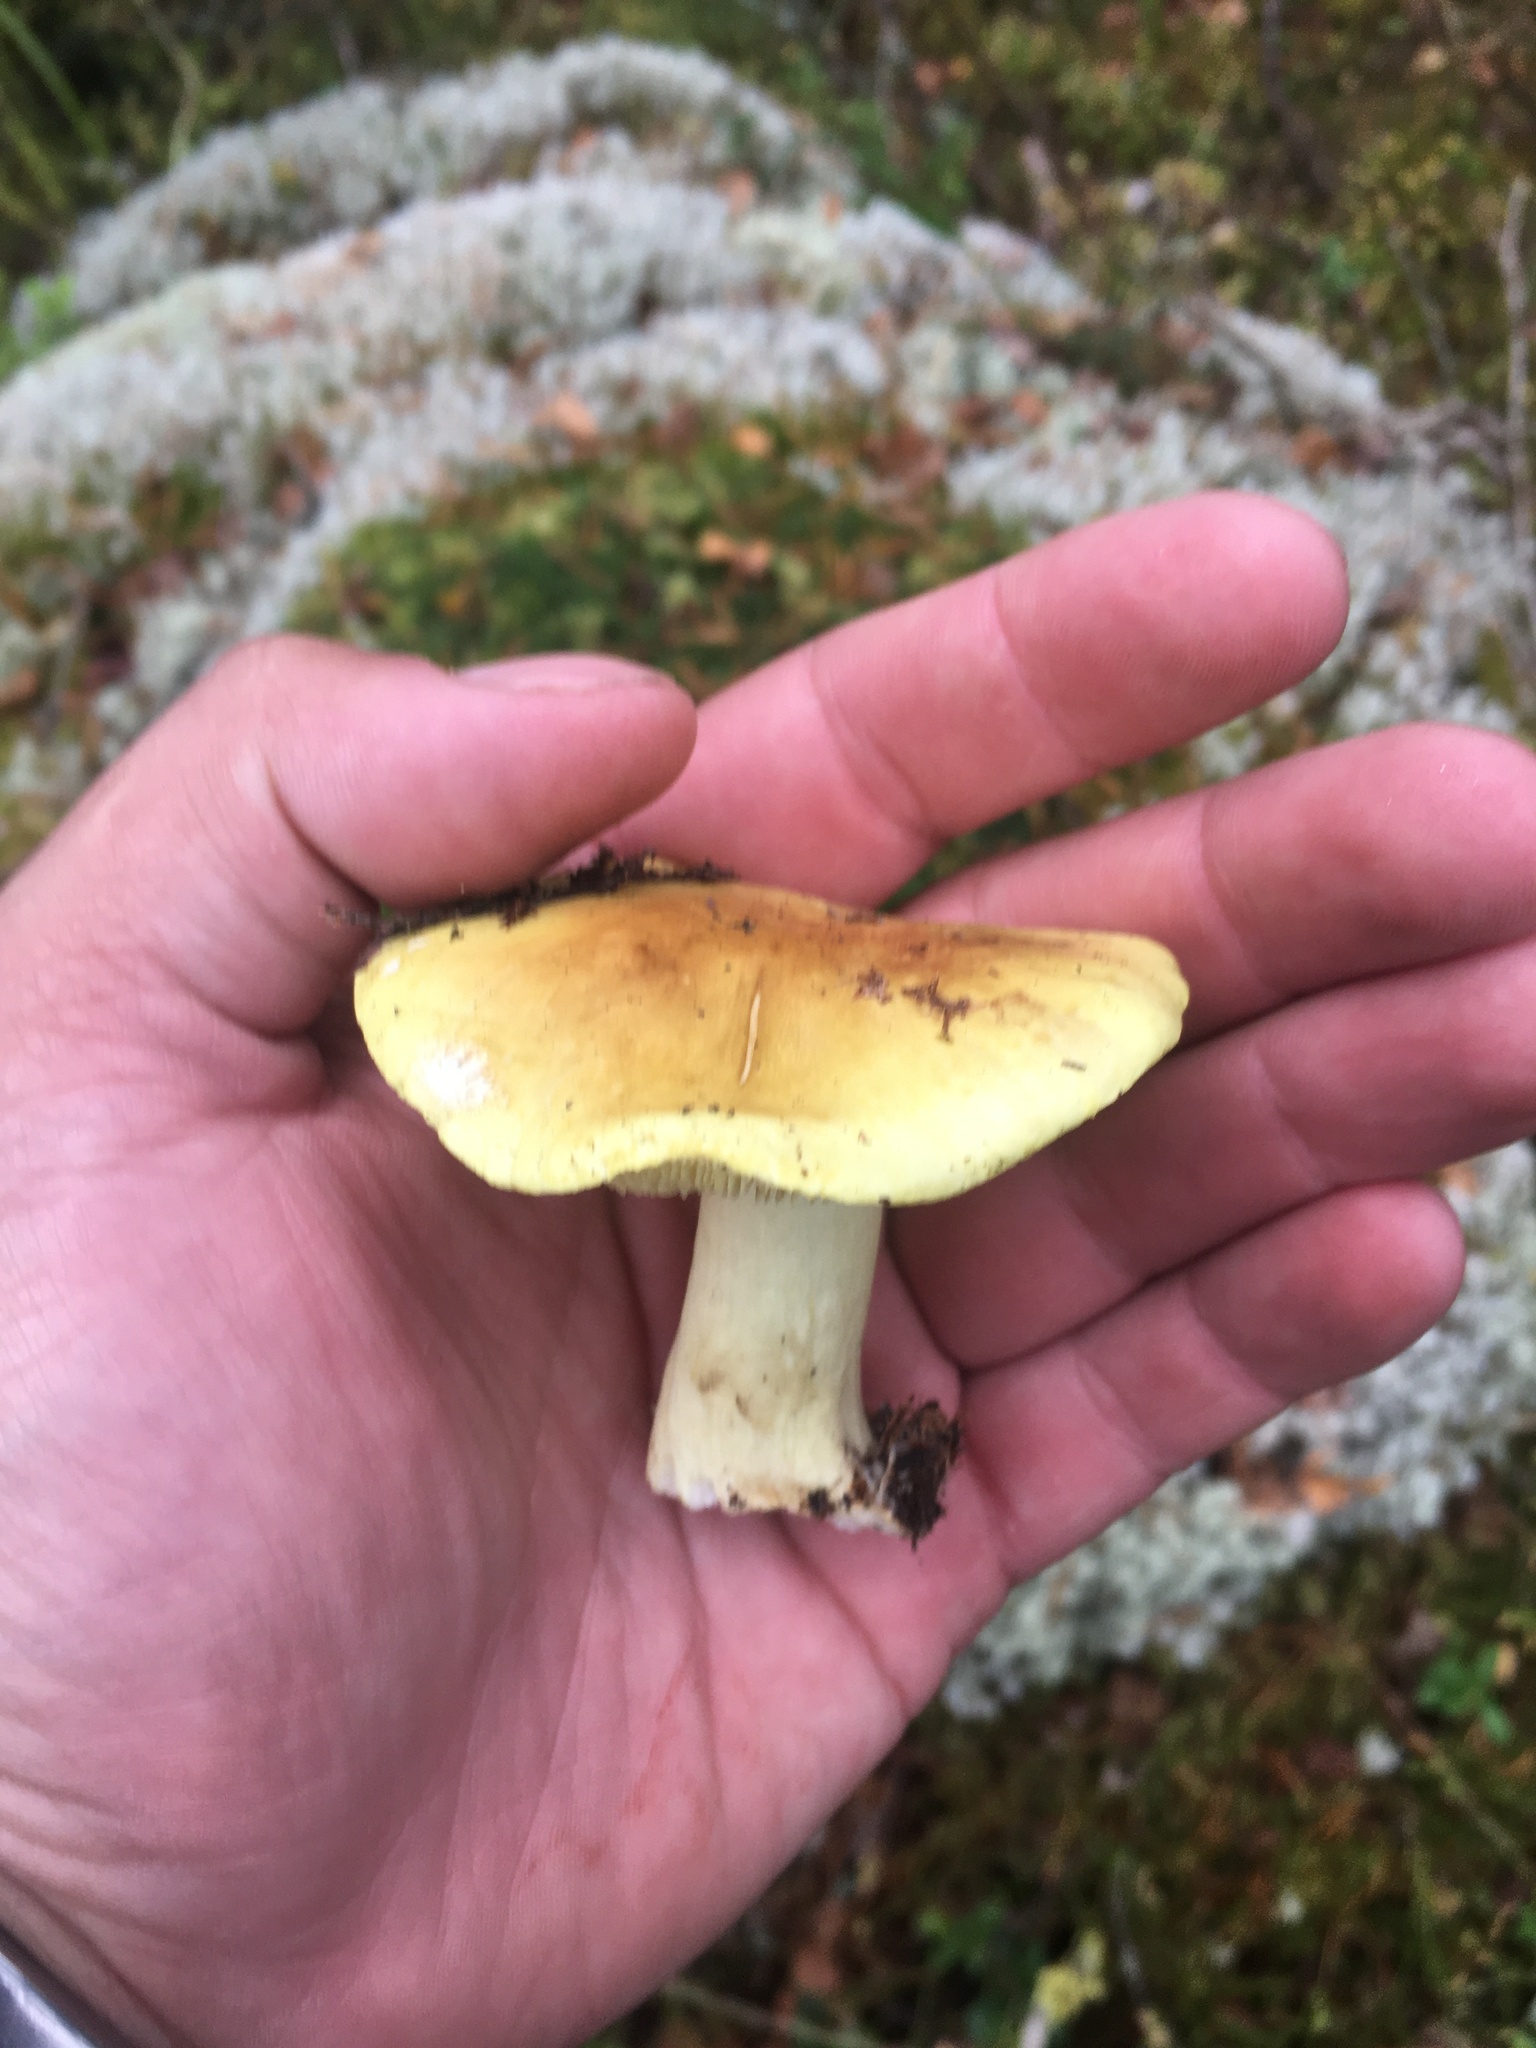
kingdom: Fungi
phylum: Basidiomycota
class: Agaricomycetes
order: Agaricales
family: Tricholomataceae
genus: Tricholoma
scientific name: Tricholoma equestre
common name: Yellow knight
